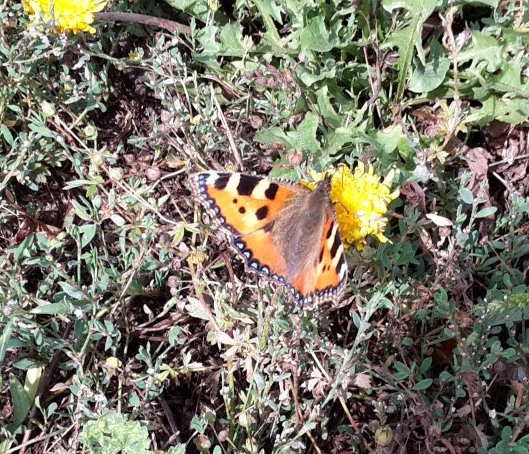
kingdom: Animalia
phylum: Arthropoda
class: Insecta
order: Lepidoptera
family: Nymphalidae
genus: Aglais
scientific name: Aglais urticae
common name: Small tortoiseshell
